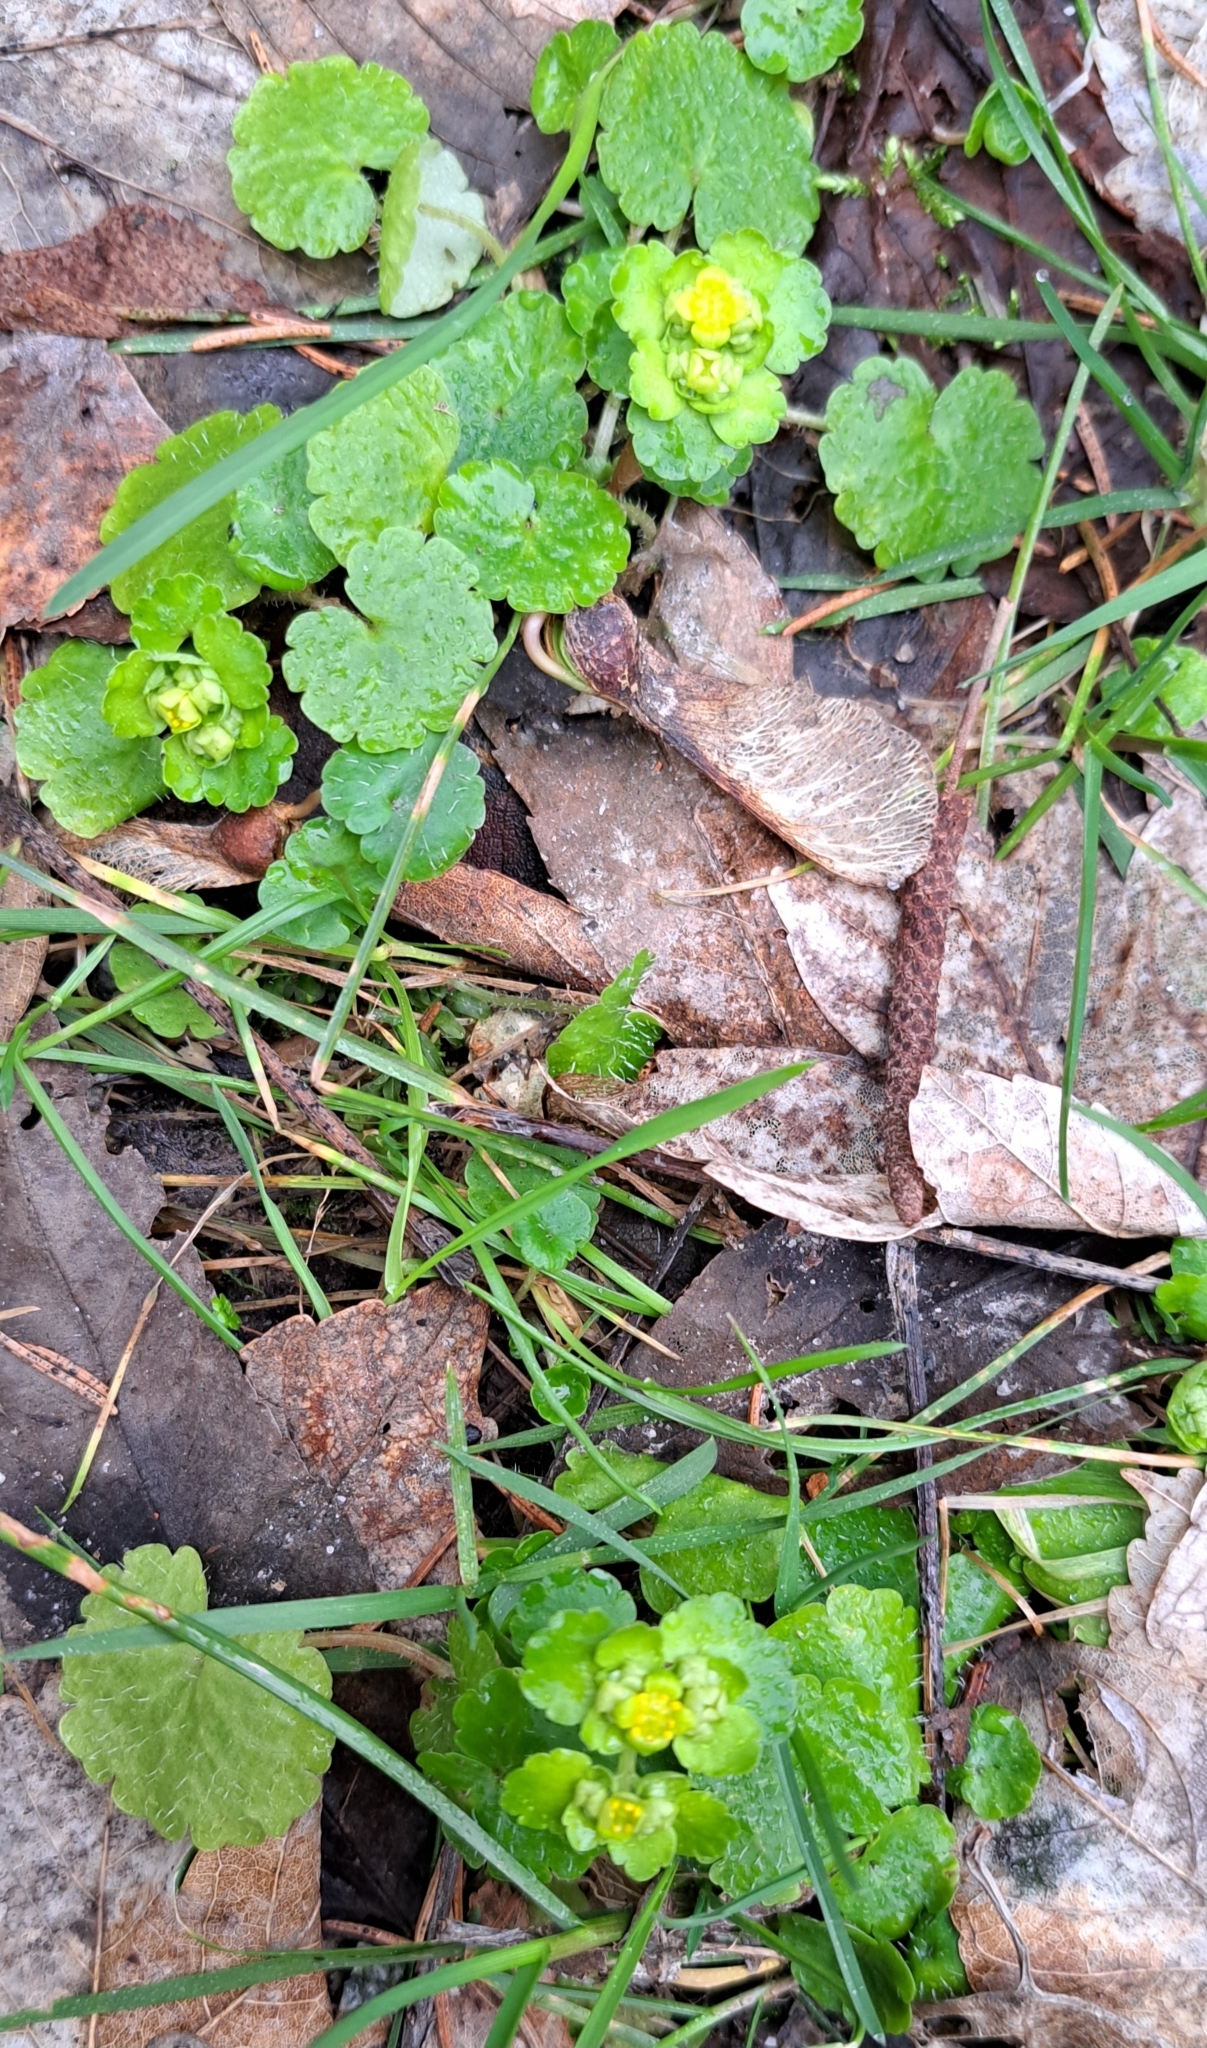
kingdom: Plantae
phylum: Tracheophyta
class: Magnoliopsida
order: Saxifragales
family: Saxifragaceae
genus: Chrysosplenium
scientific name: Chrysosplenium alternifolium
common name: Alternate-leaved golden-saxifrage
